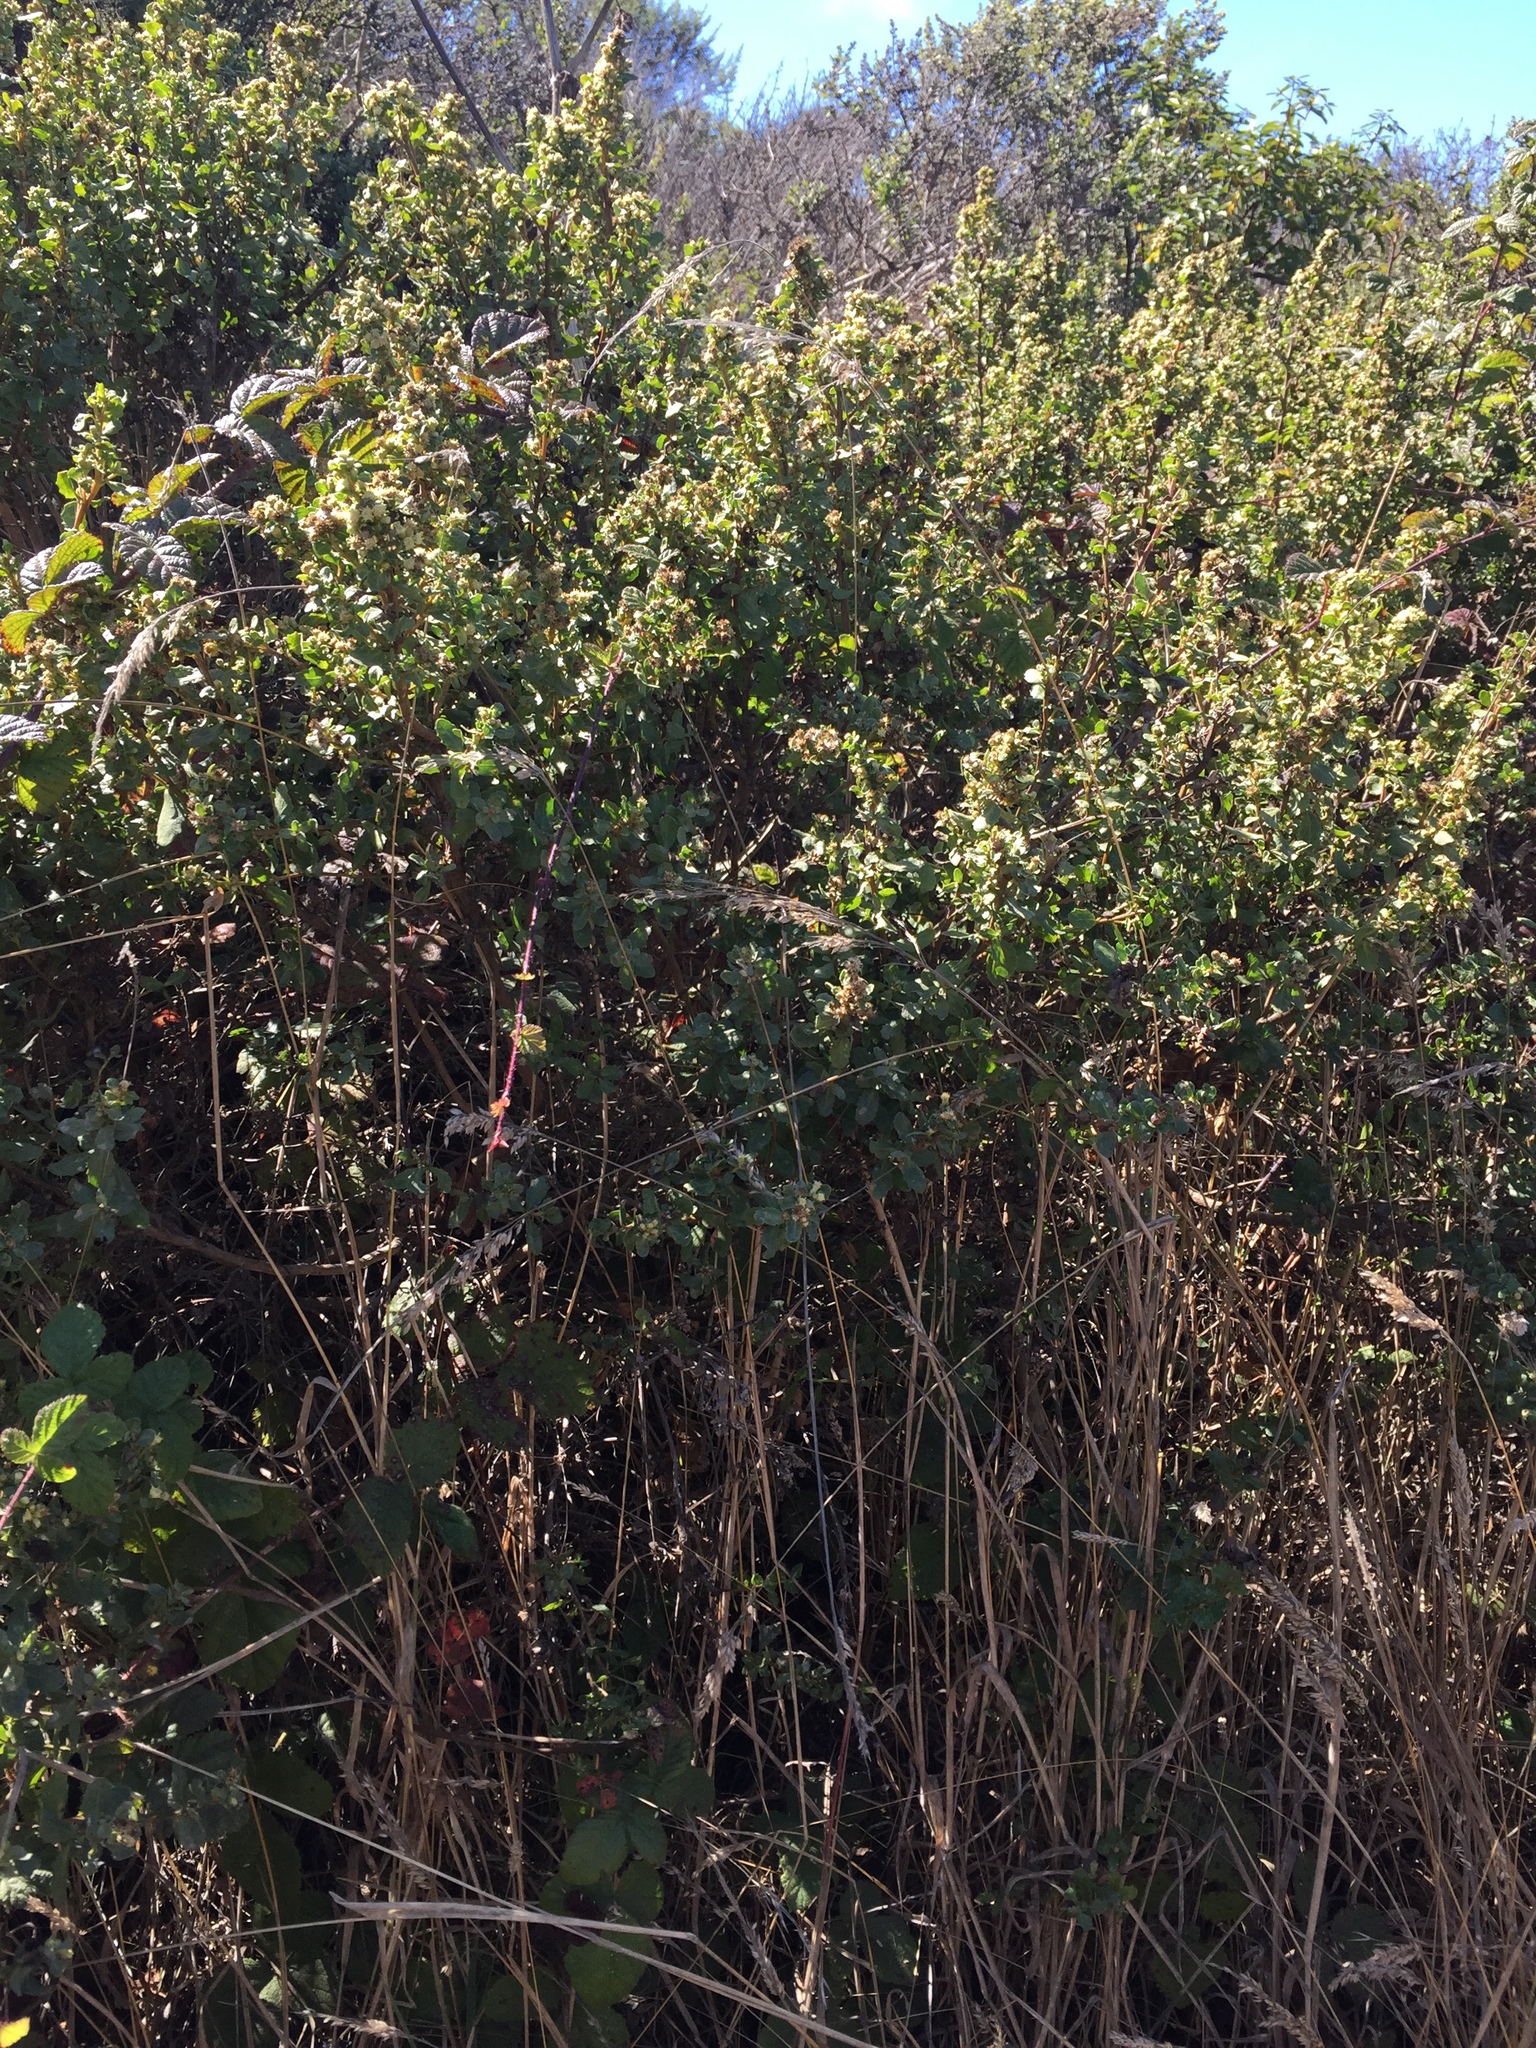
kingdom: Plantae
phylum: Tracheophyta
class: Magnoliopsida
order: Asterales
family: Asteraceae
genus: Baccharis
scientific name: Baccharis pilularis
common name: Coyotebrush
